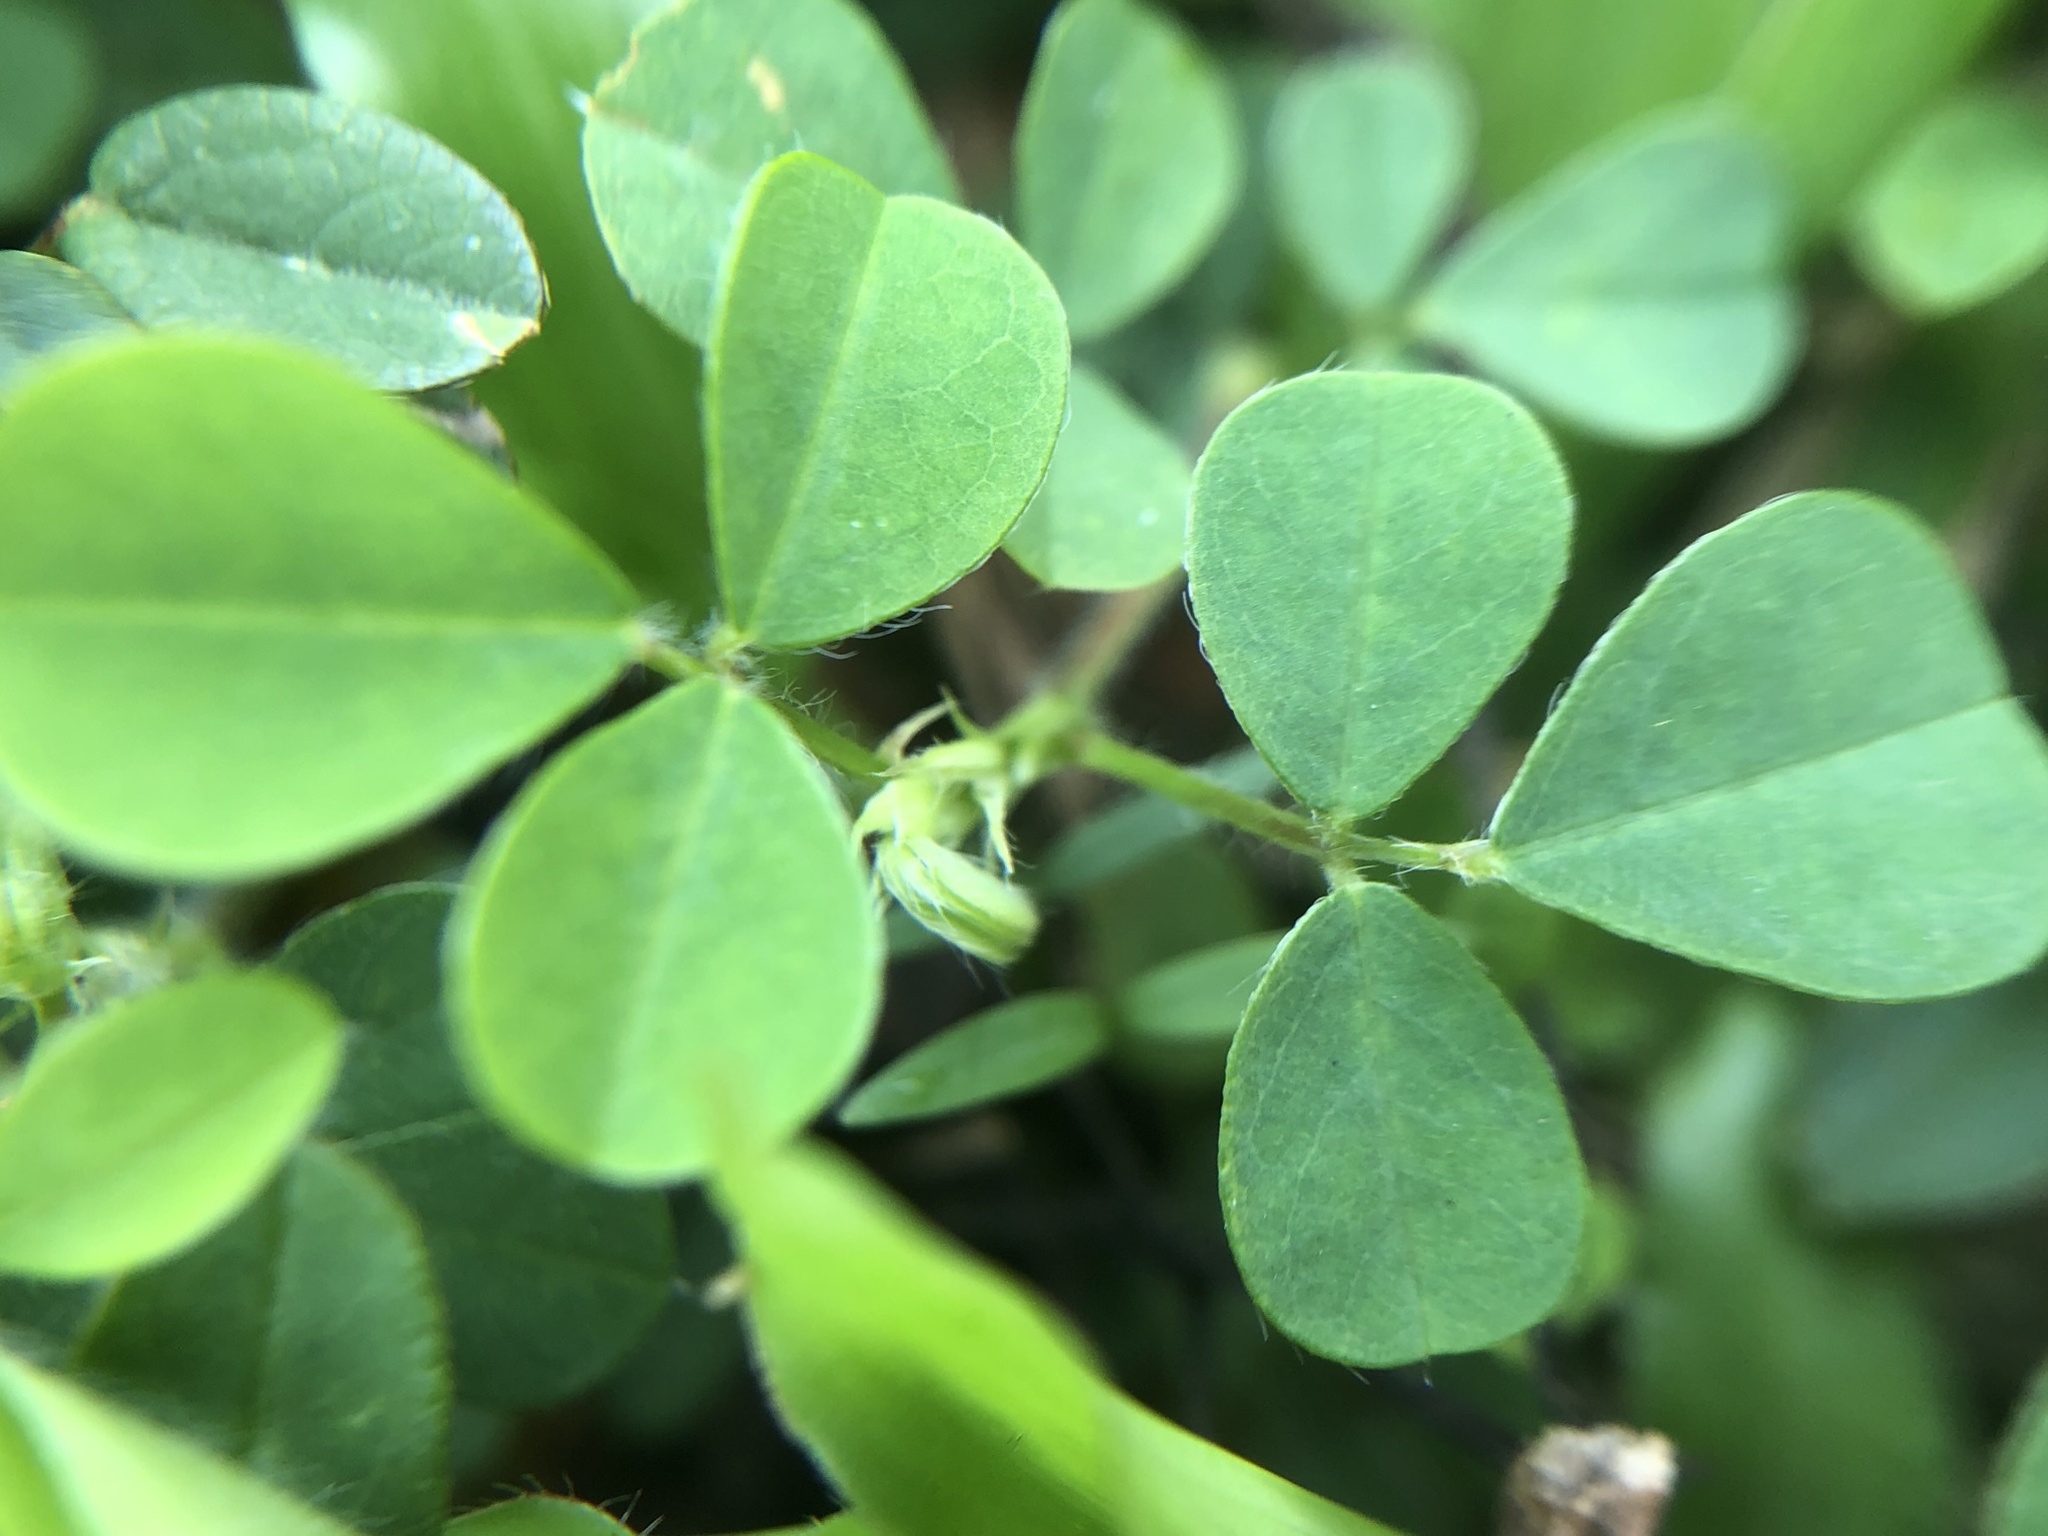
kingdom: Plantae
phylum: Tracheophyta
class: Magnoliopsida
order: Fabales
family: Fabaceae
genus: Grona
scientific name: Grona triflora
